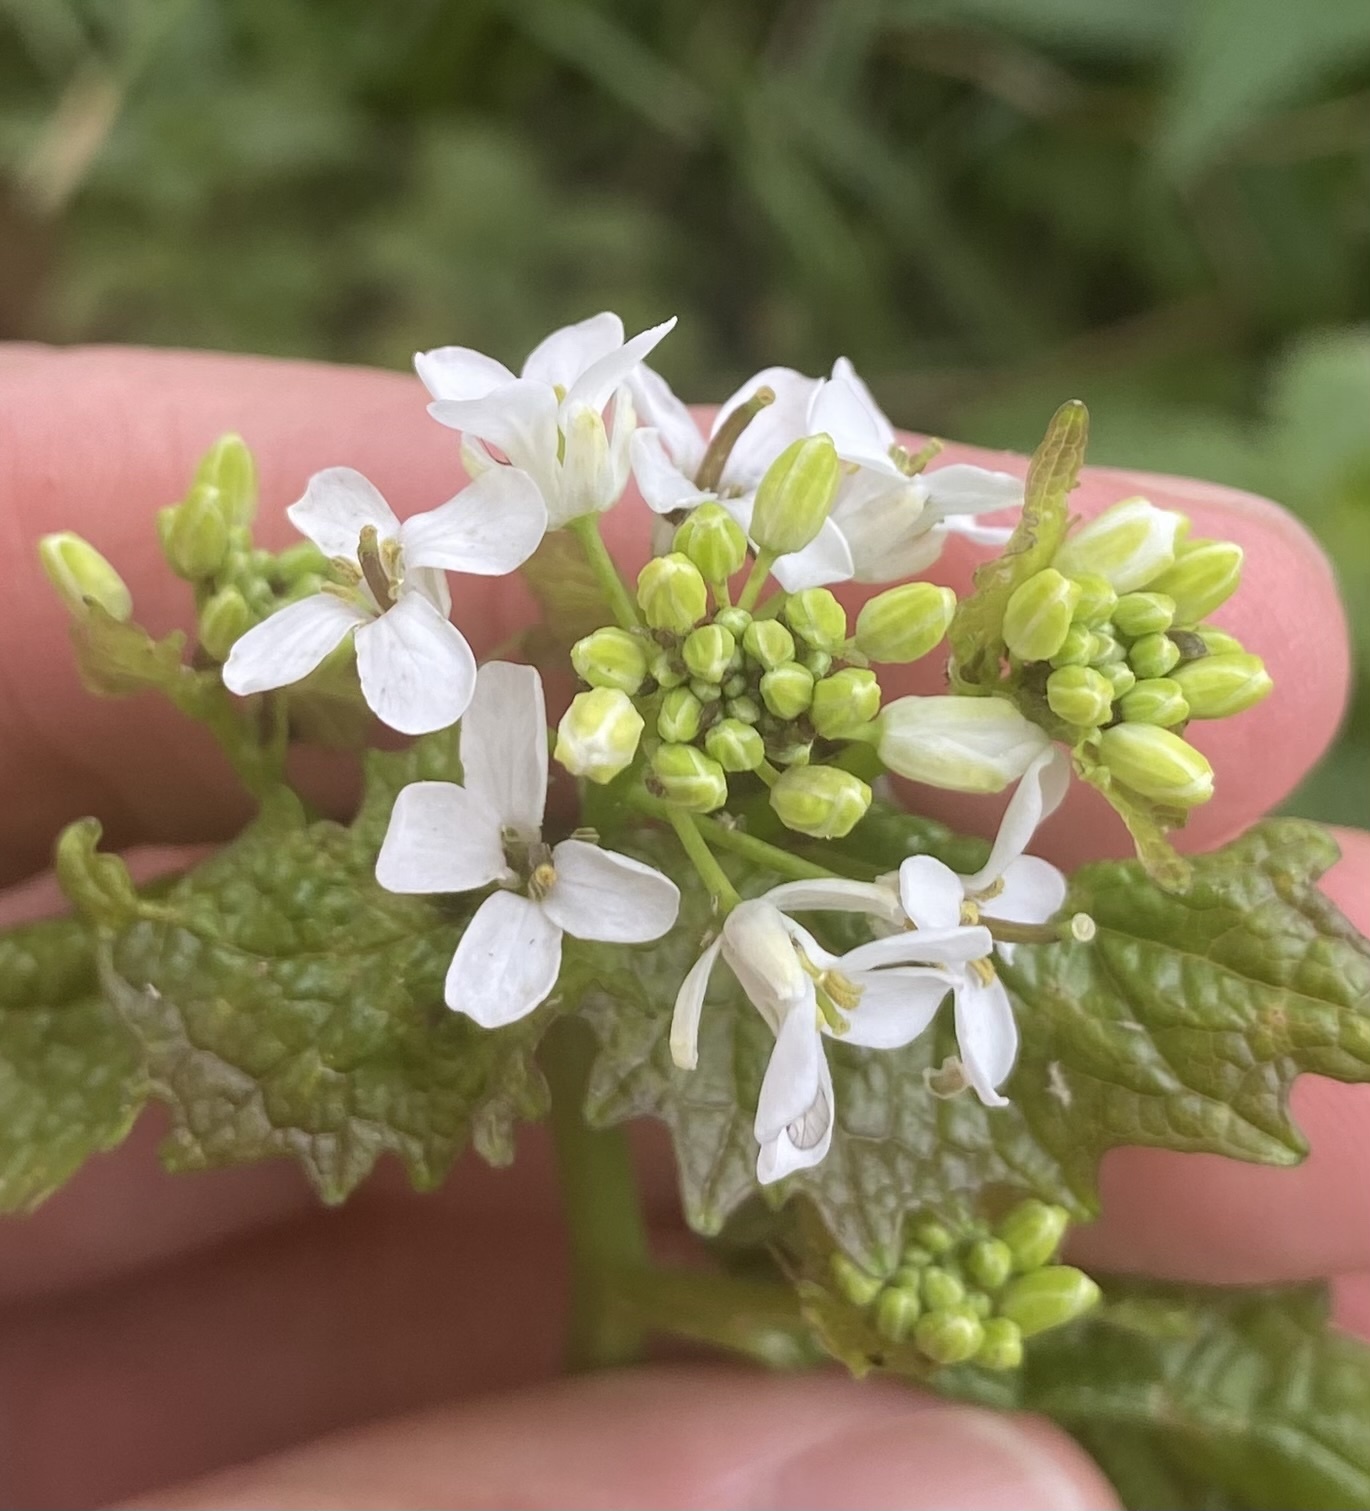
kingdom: Plantae
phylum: Tracheophyta
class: Magnoliopsida
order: Brassicales
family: Brassicaceae
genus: Alliaria
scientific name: Alliaria petiolata
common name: Garlic mustard
